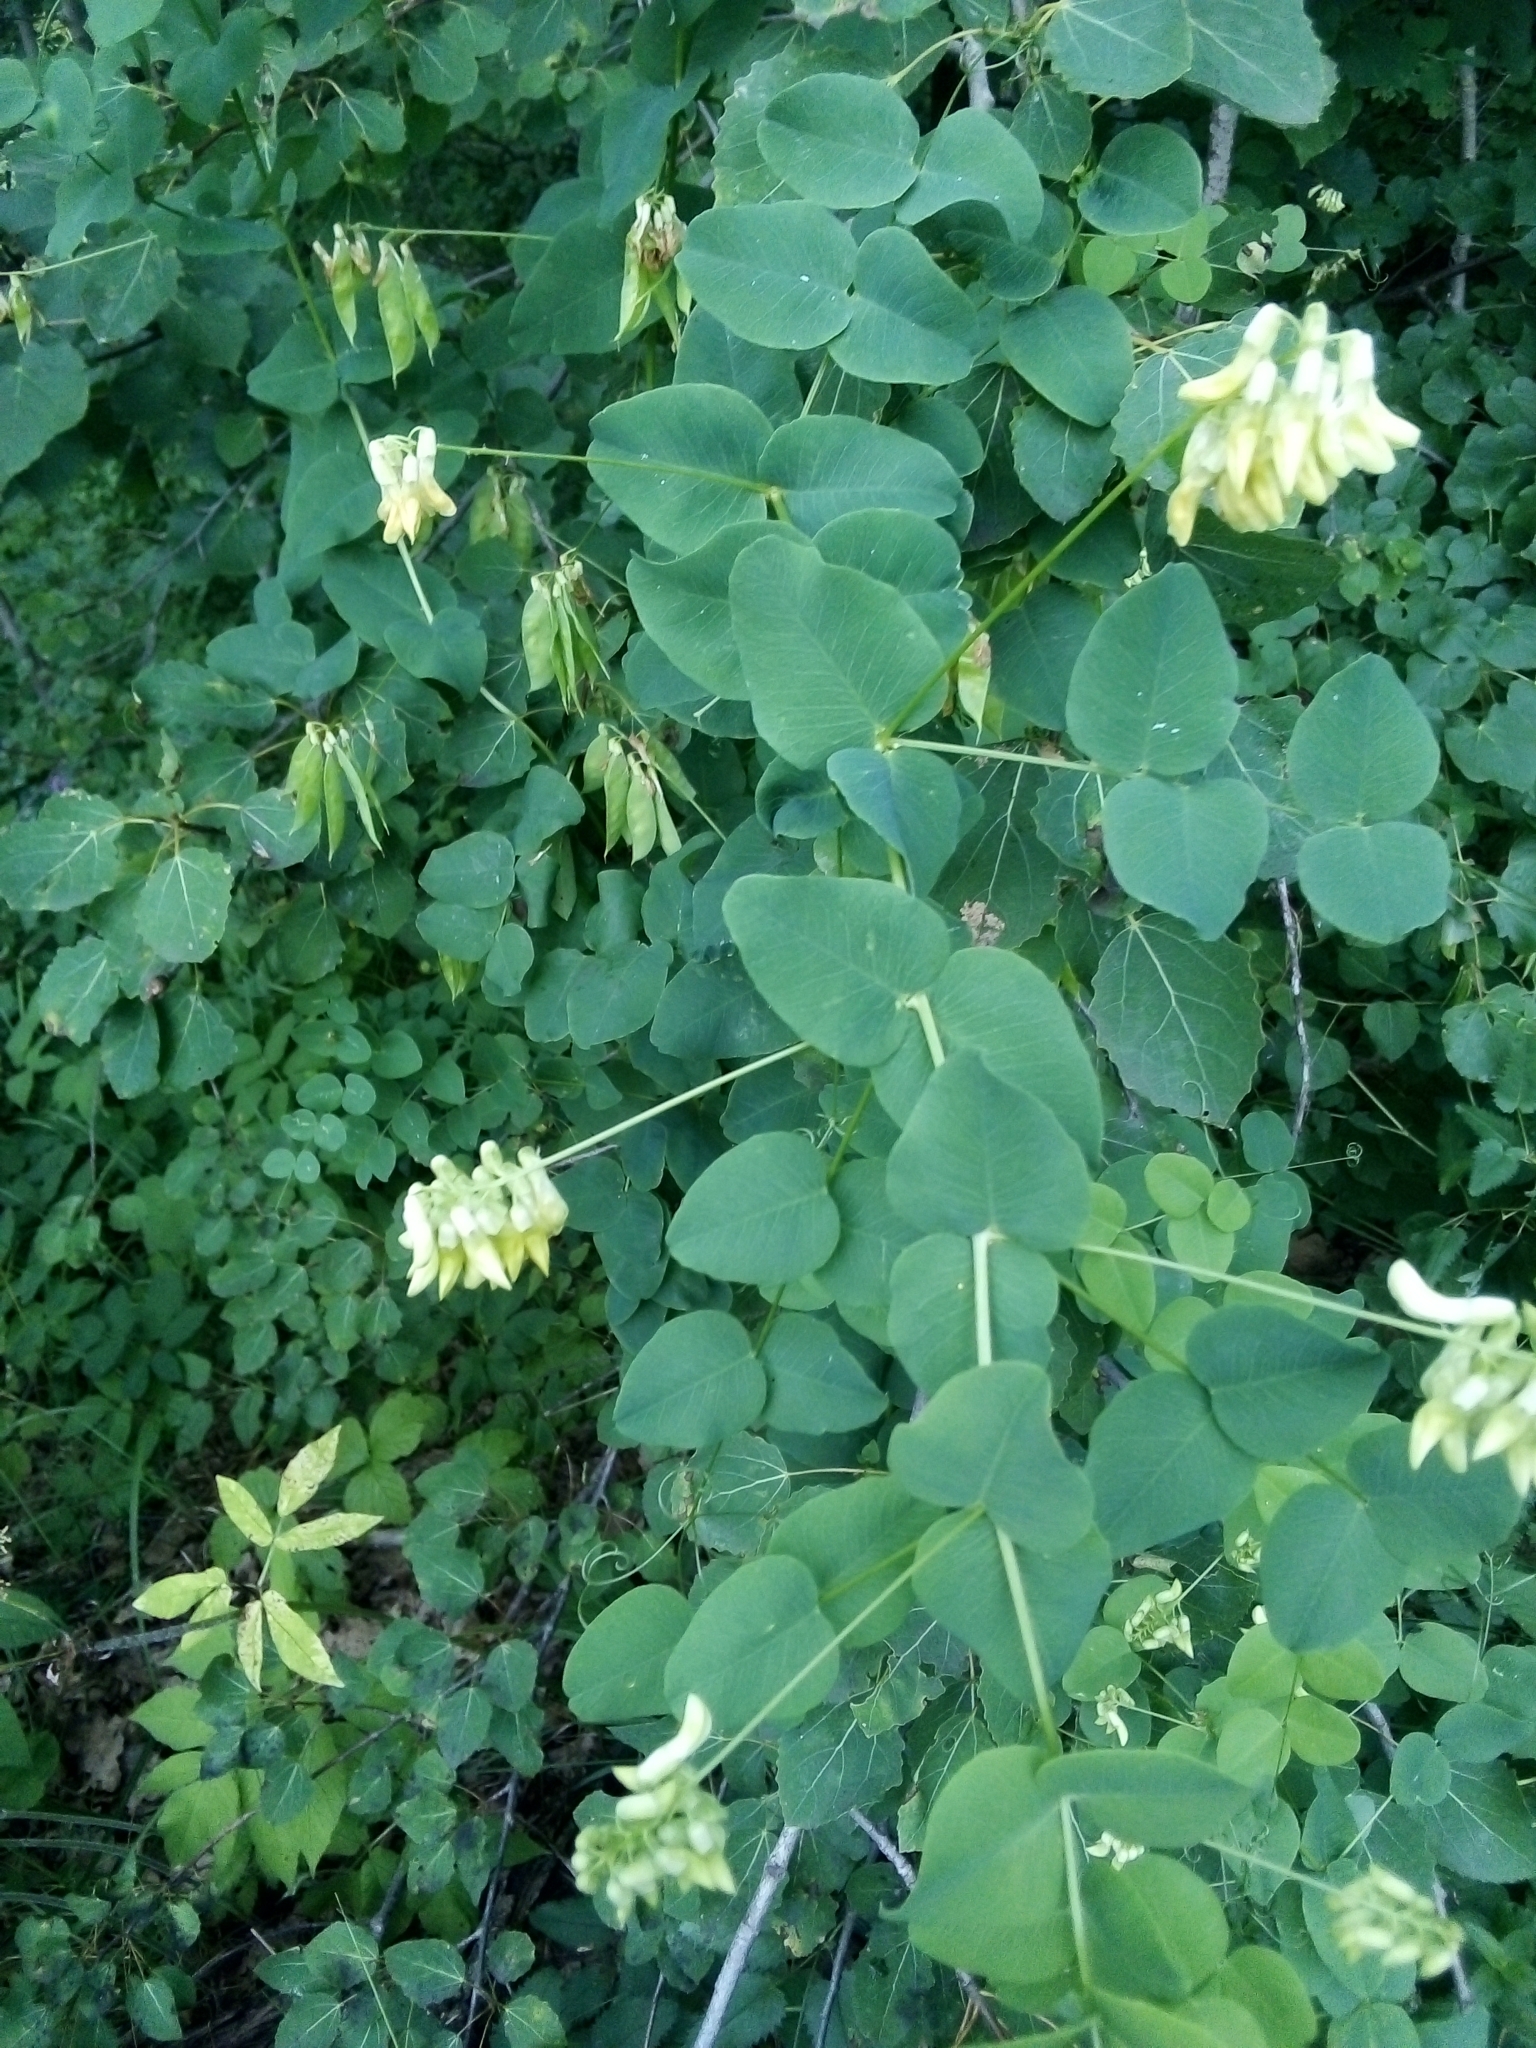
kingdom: Plantae
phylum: Tracheophyta
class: Magnoliopsida
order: Fabales
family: Fabaceae
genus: Vicia
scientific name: Vicia pisiformis
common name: Pale-flower vetch
